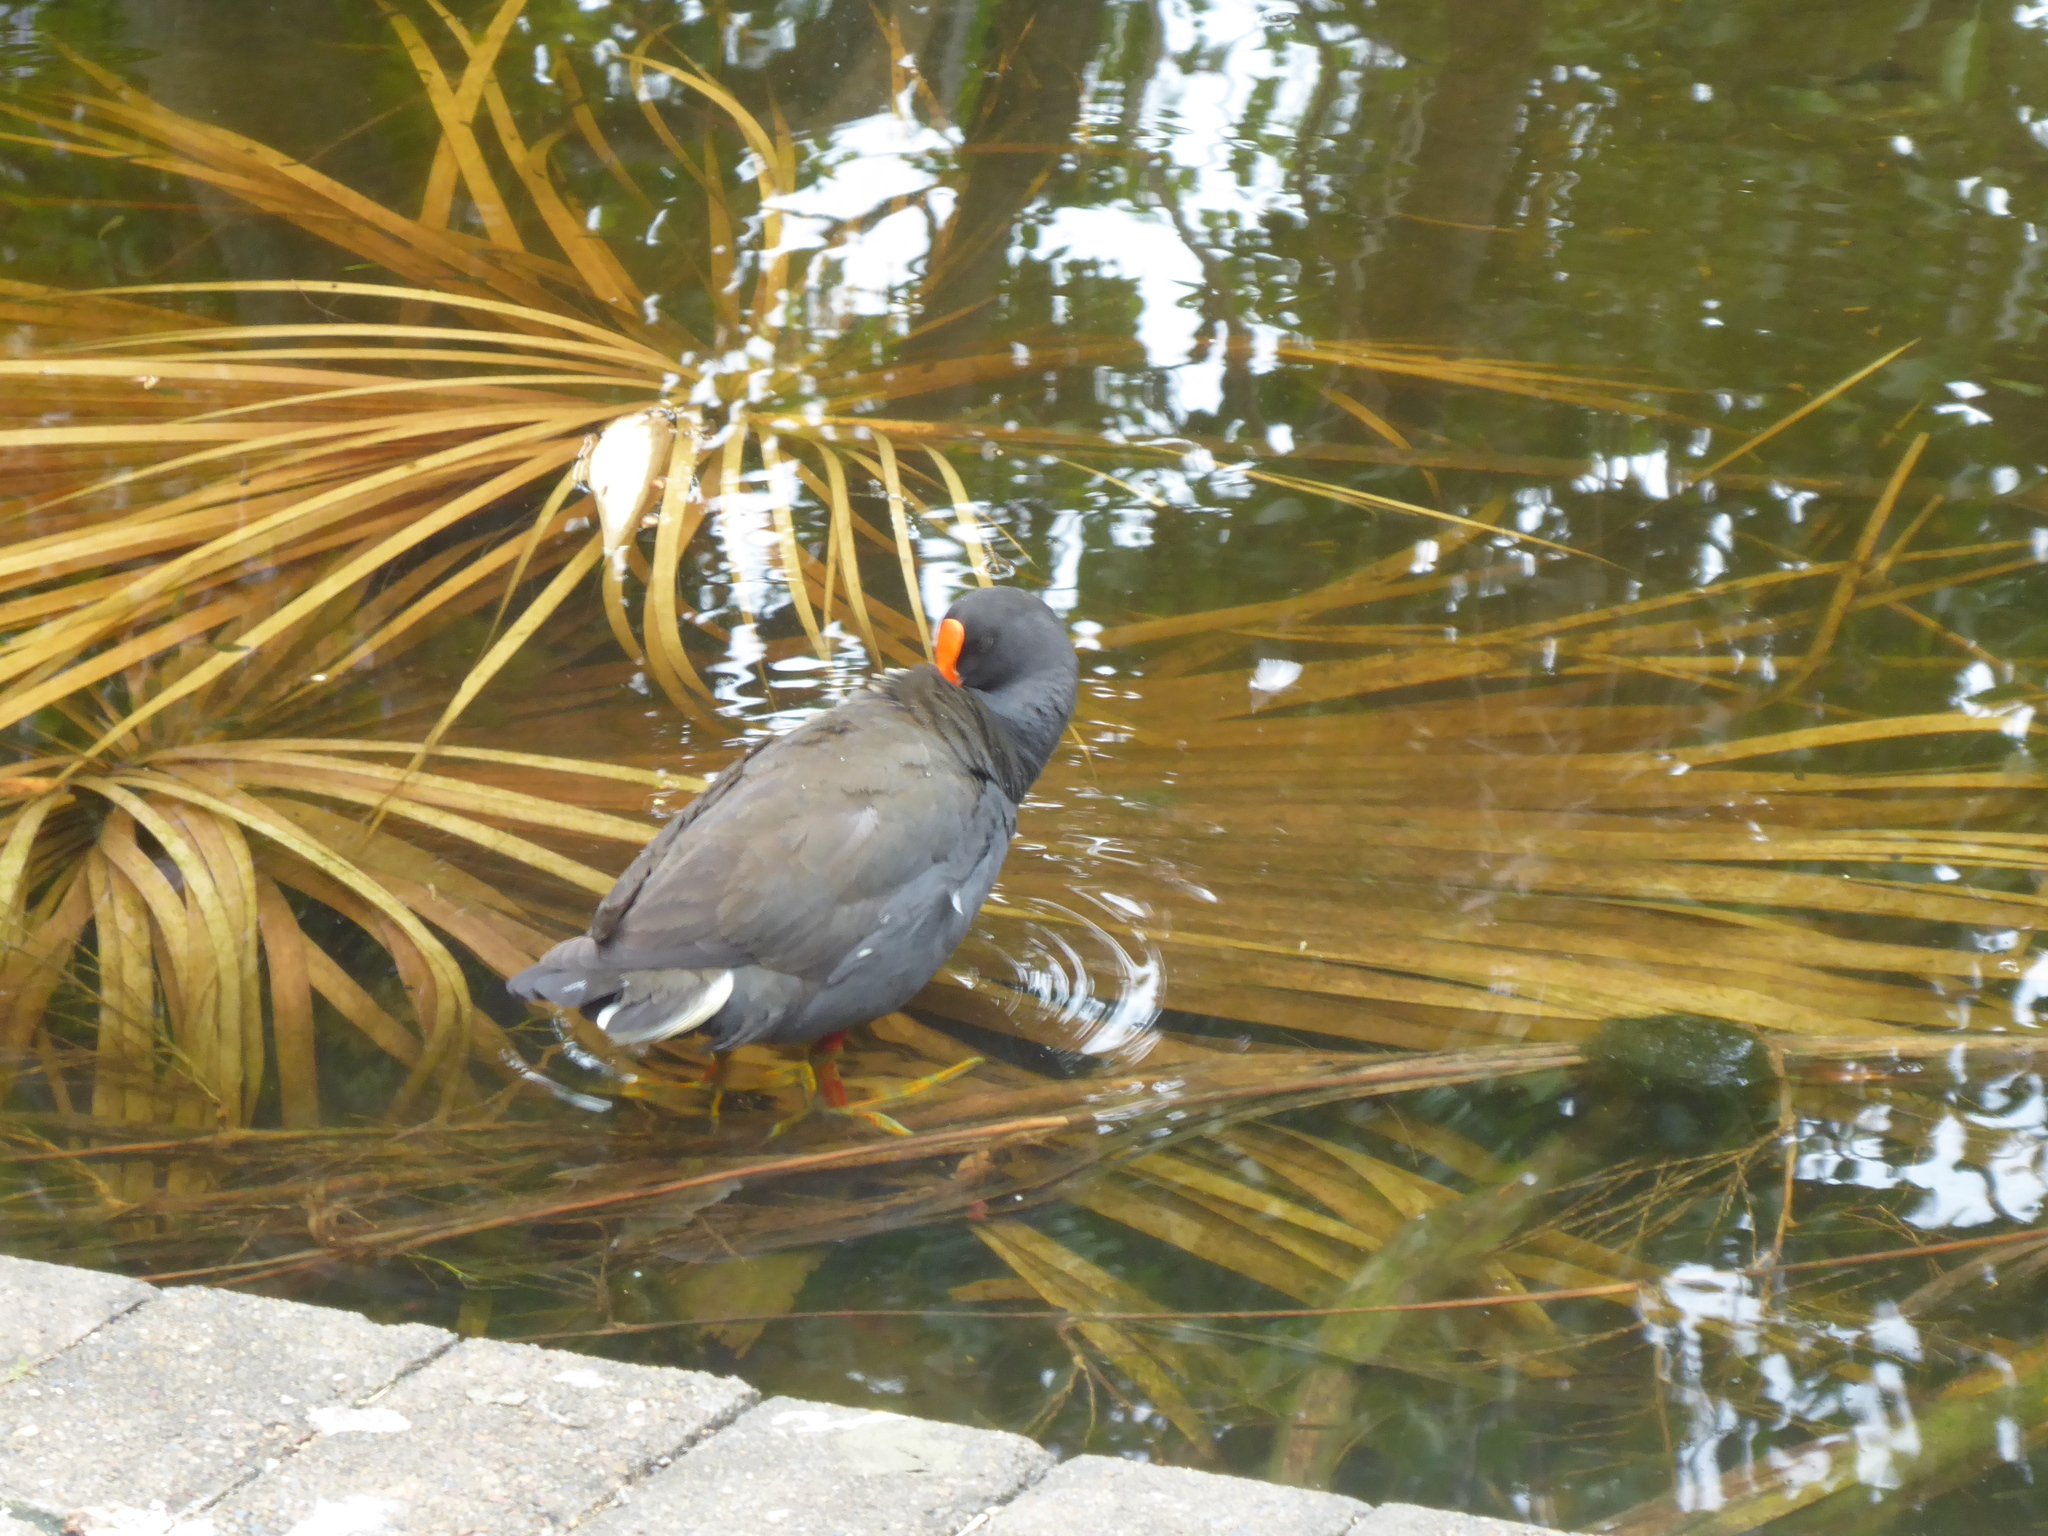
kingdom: Animalia
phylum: Chordata
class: Aves
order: Gruiformes
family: Rallidae
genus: Gallinula
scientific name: Gallinula tenebrosa
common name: Dusky moorhen
